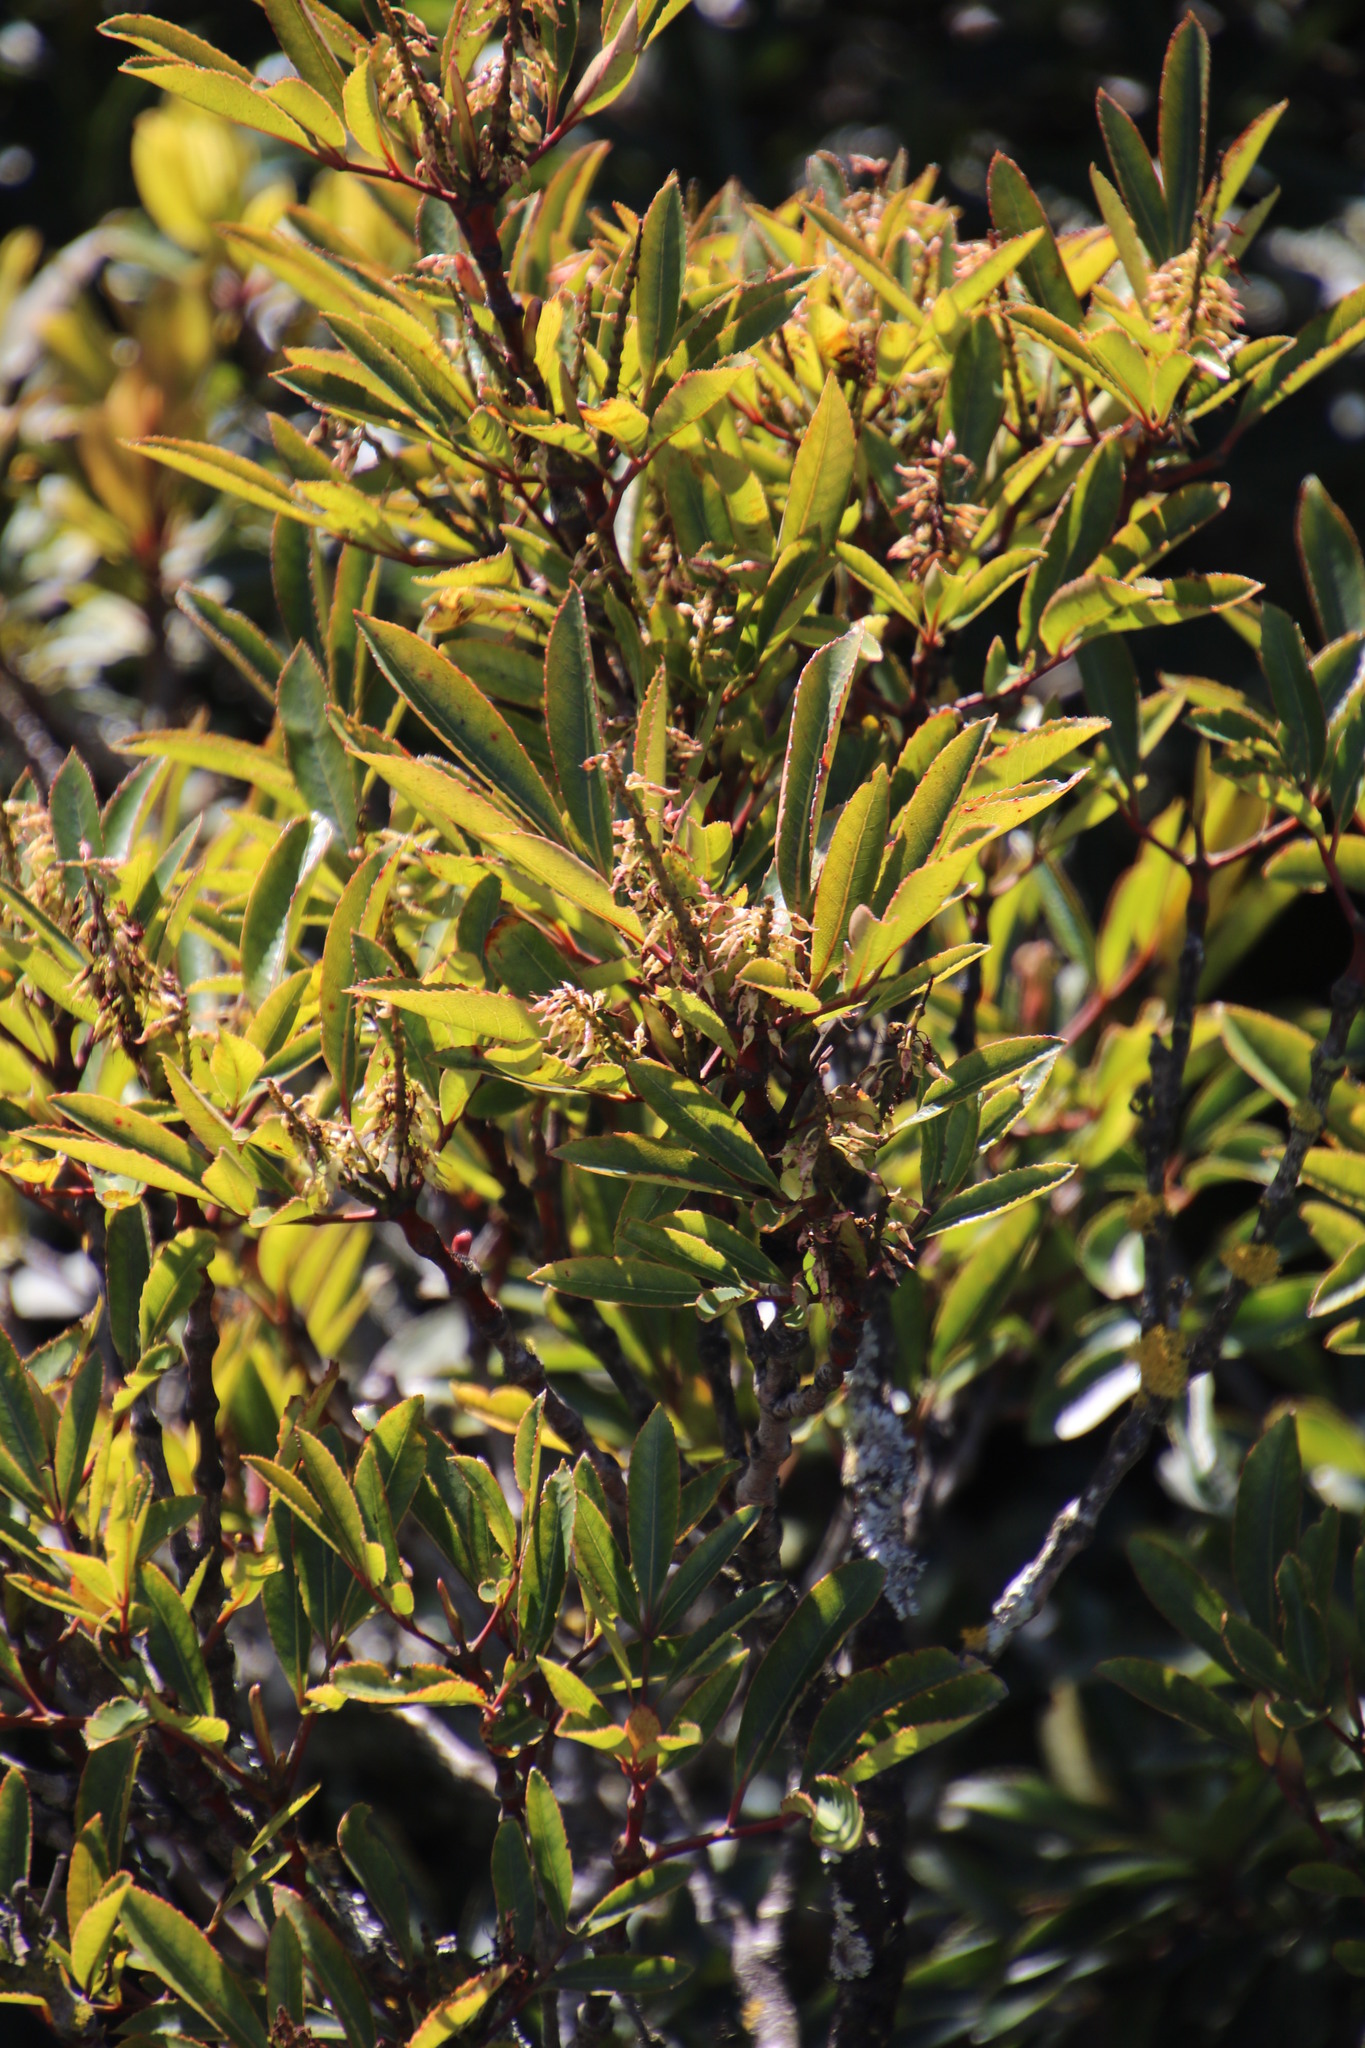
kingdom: Plantae
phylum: Tracheophyta
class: Magnoliopsida
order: Oxalidales
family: Cunoniaceae
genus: Cunonia
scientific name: Cunonia capensis
